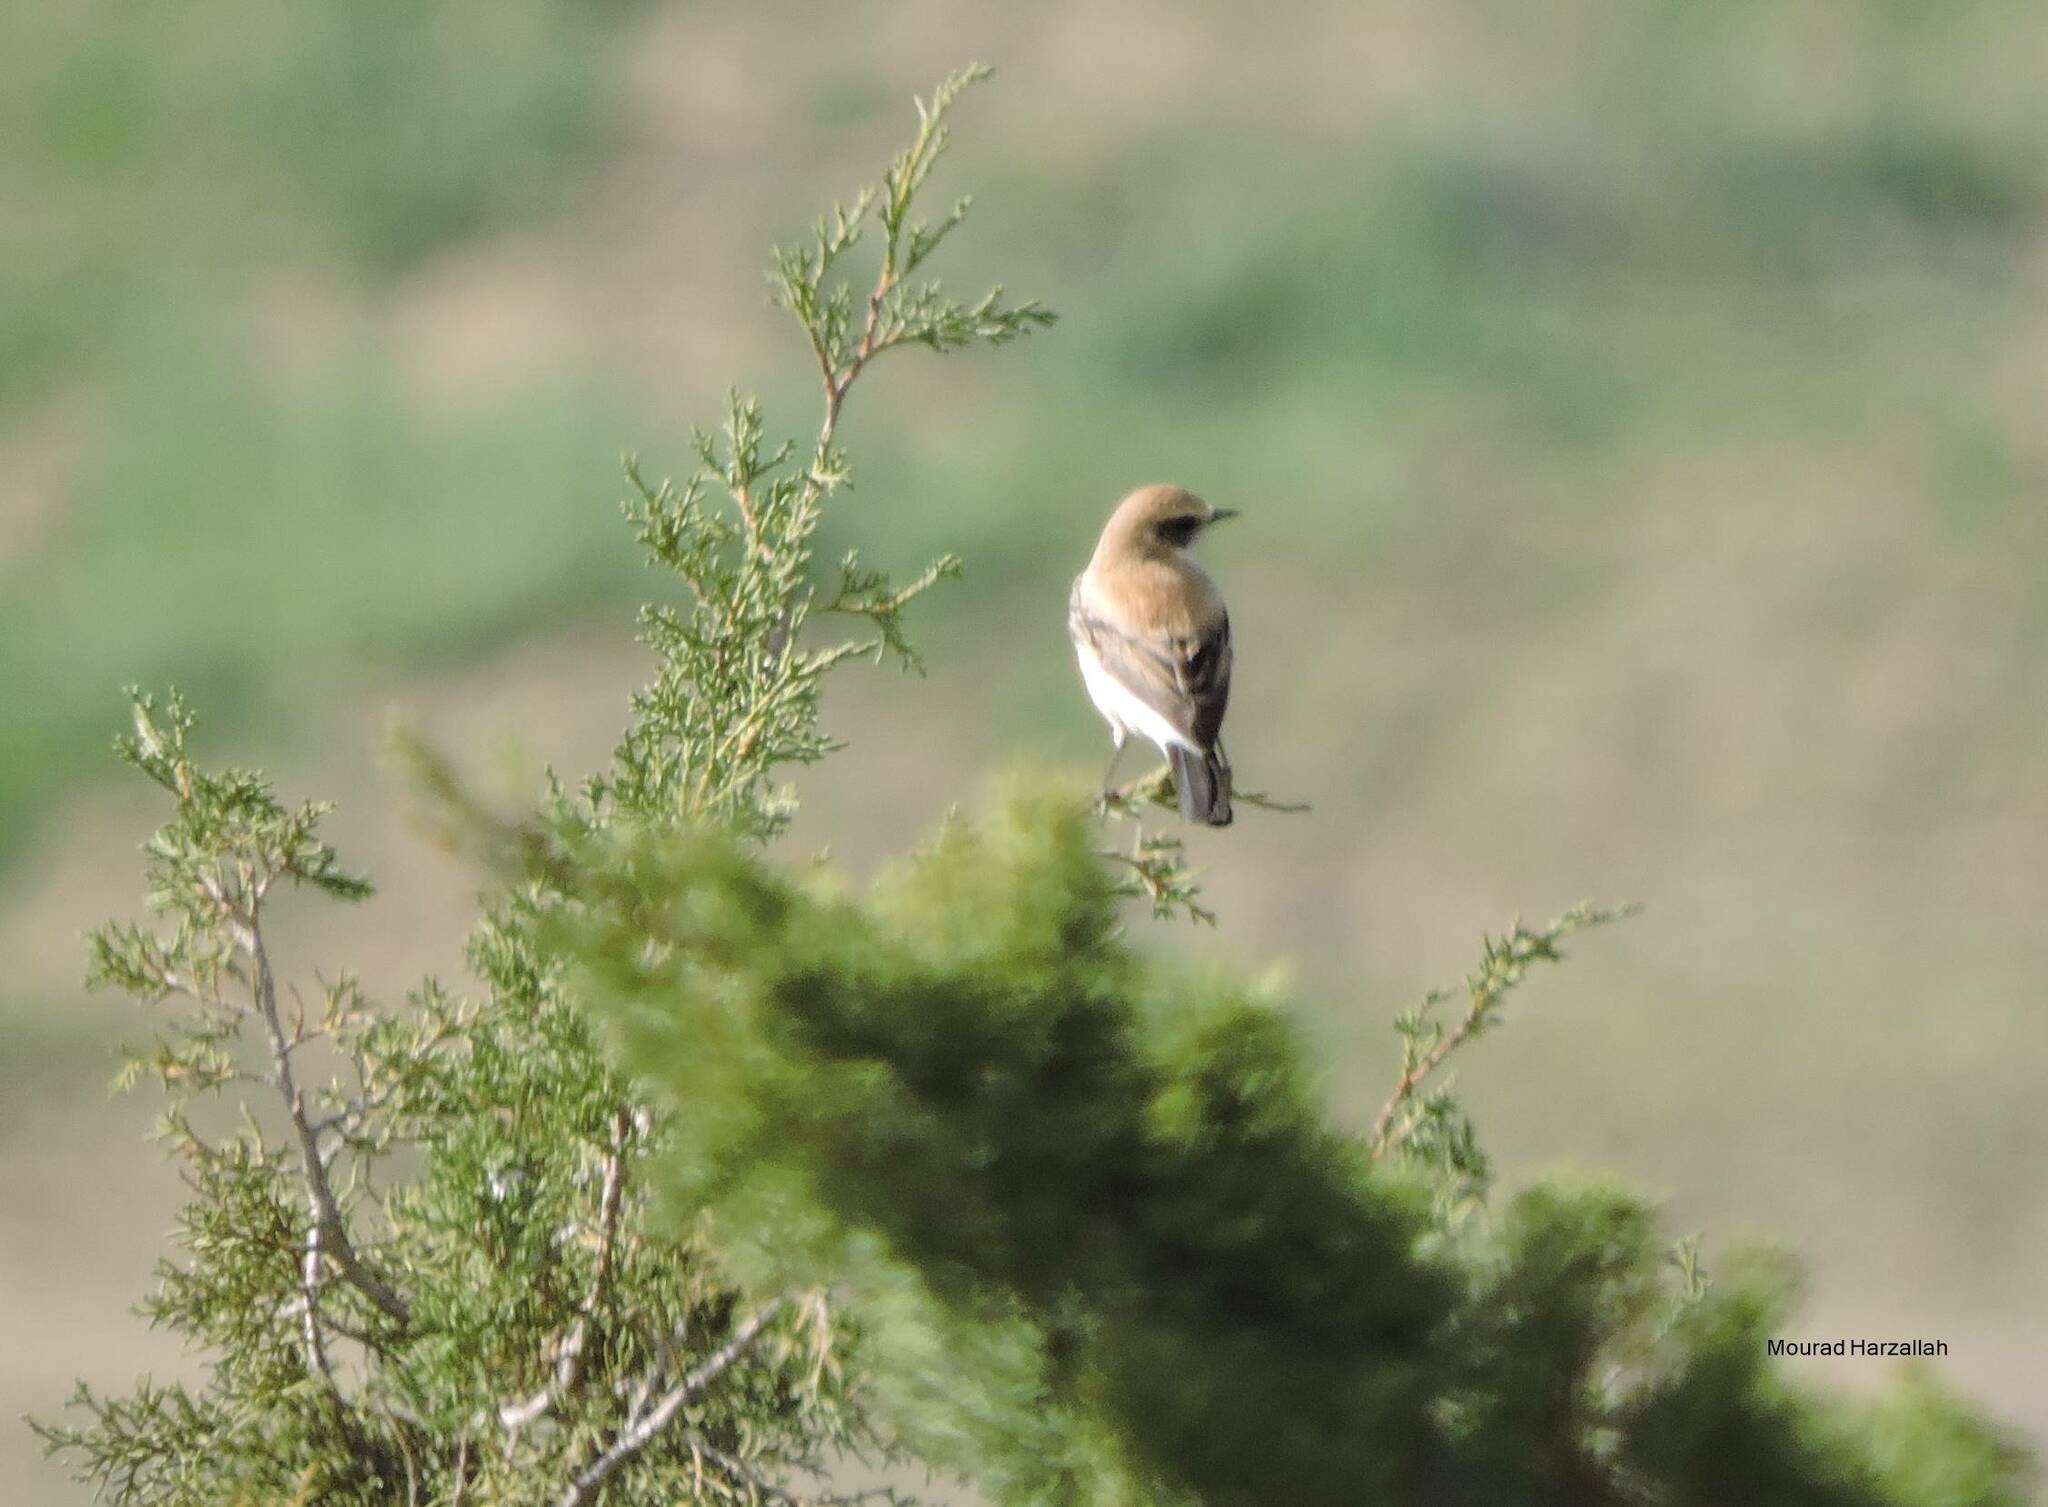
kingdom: Animalia
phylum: Chordata
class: Aves
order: Passeriformes
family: Muscicapidae
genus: Oenanthe
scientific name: Oenanthe hispanica
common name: Black-eared wheatear
